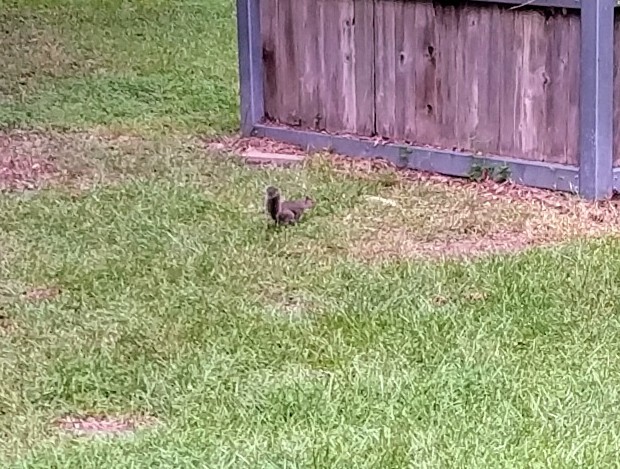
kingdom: Animalia
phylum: Chordata
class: Mammalia
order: Rodentia
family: Sciuridae
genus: Sciurus
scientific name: Sciurus carolinensis
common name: Eastern gray squirrel
